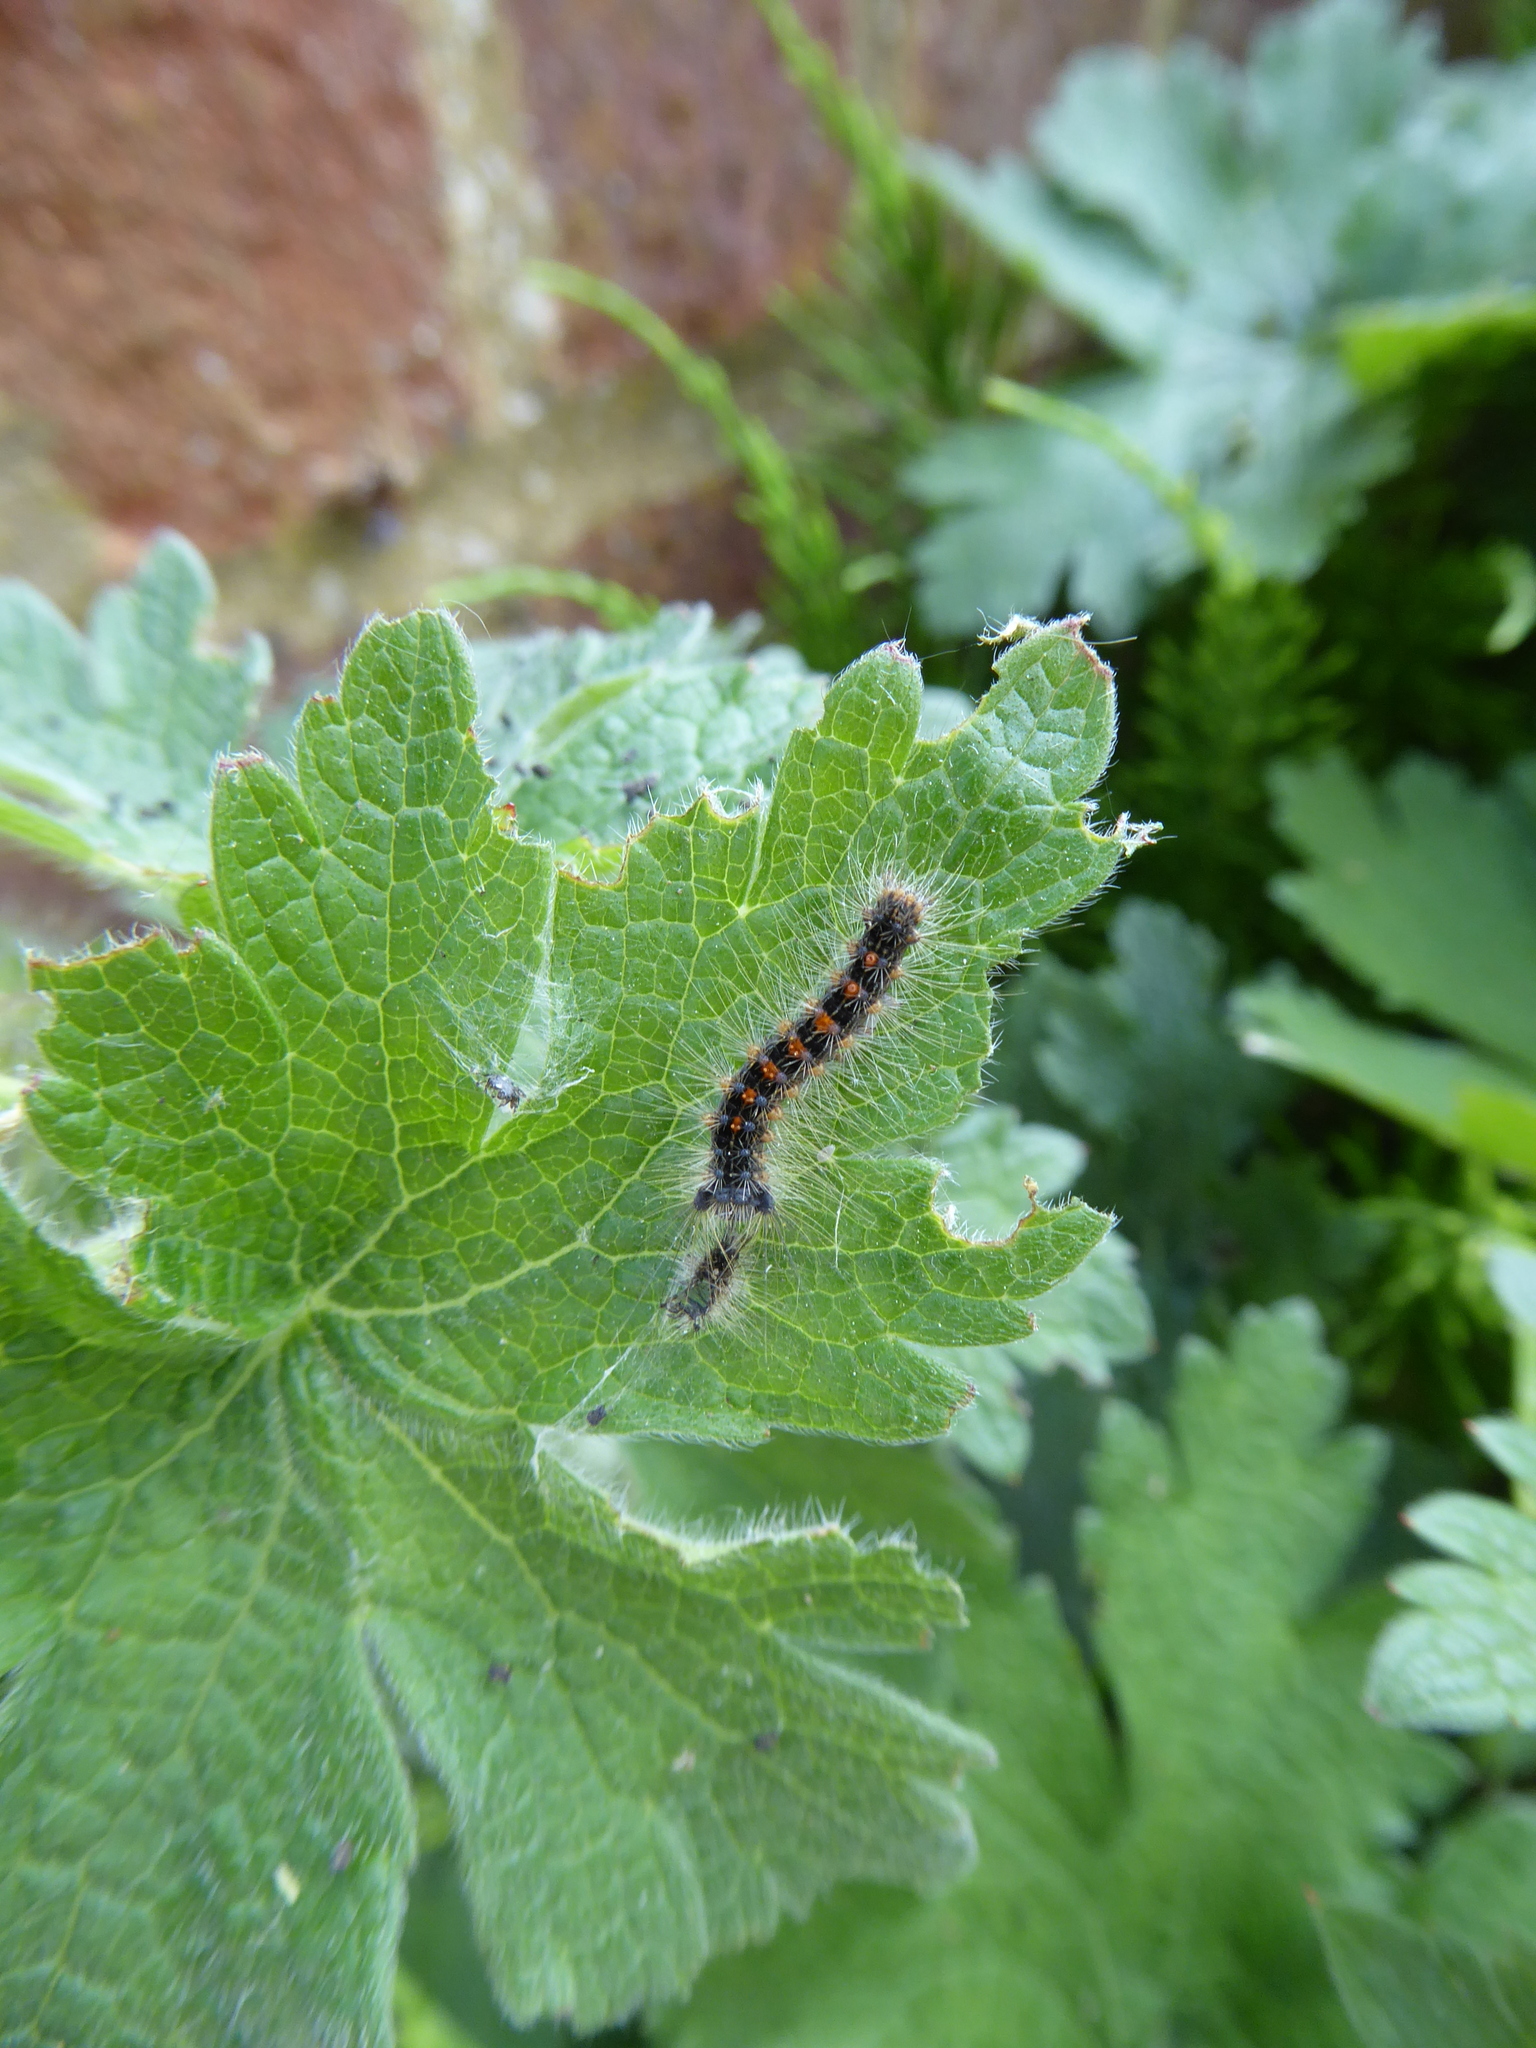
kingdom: Plantae
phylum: Tracheophyta
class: Magnoliopsida
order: Geraniales
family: Geraniaceae
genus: Geranium
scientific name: Geranium magnificum
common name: Purple crane's-bill
